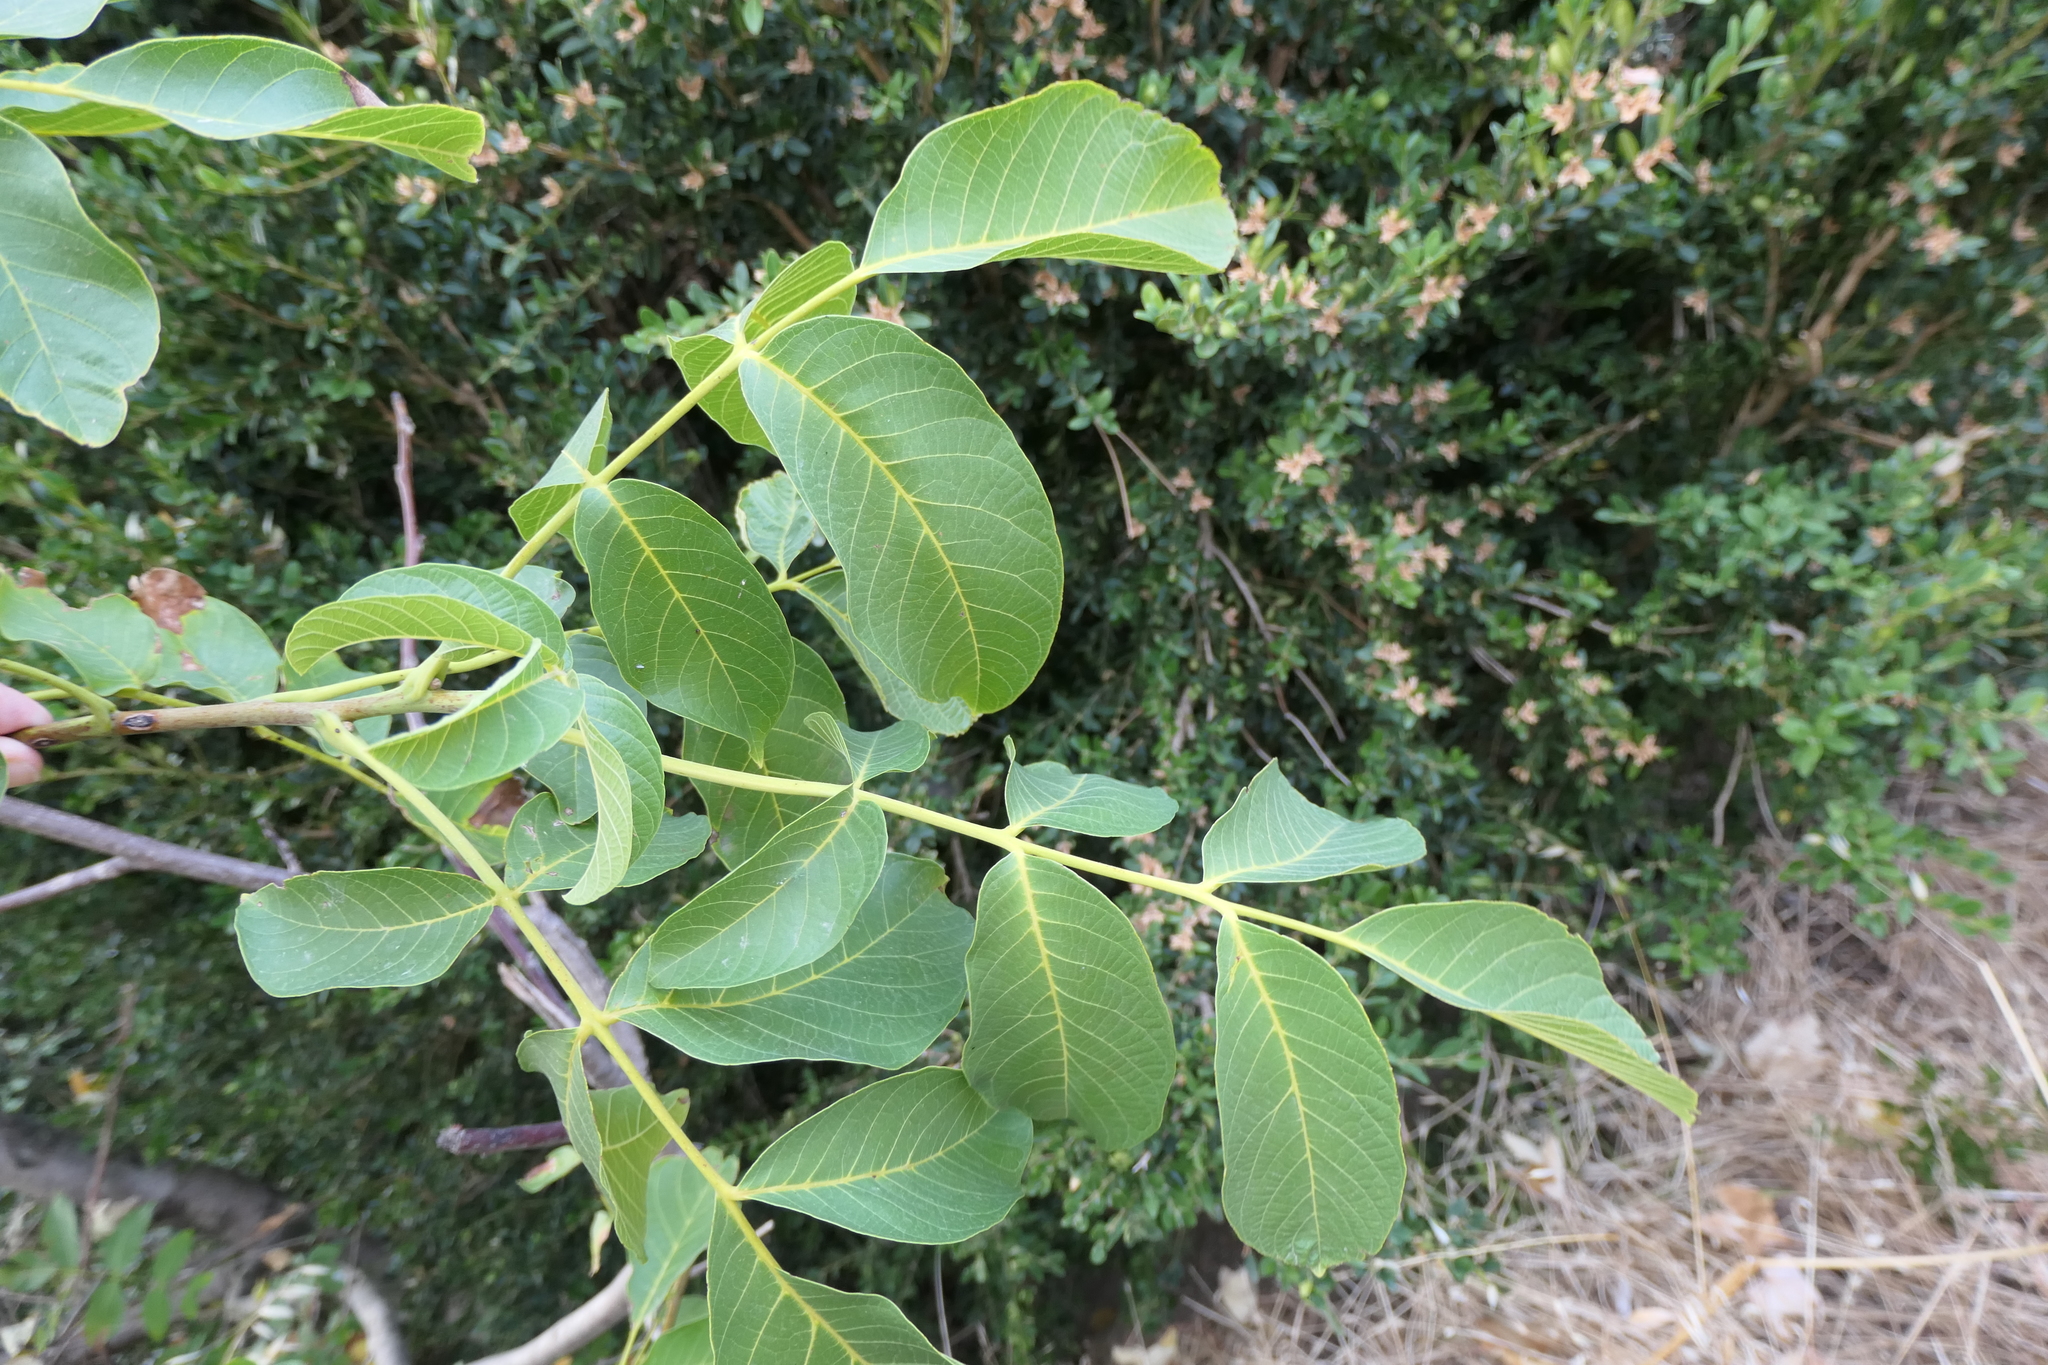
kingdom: Plantae
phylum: Tracheophyta
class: Magnoliopsida
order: Fagales
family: Juglandaceae
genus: Juglans
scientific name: Juglans regia
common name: Walnut
